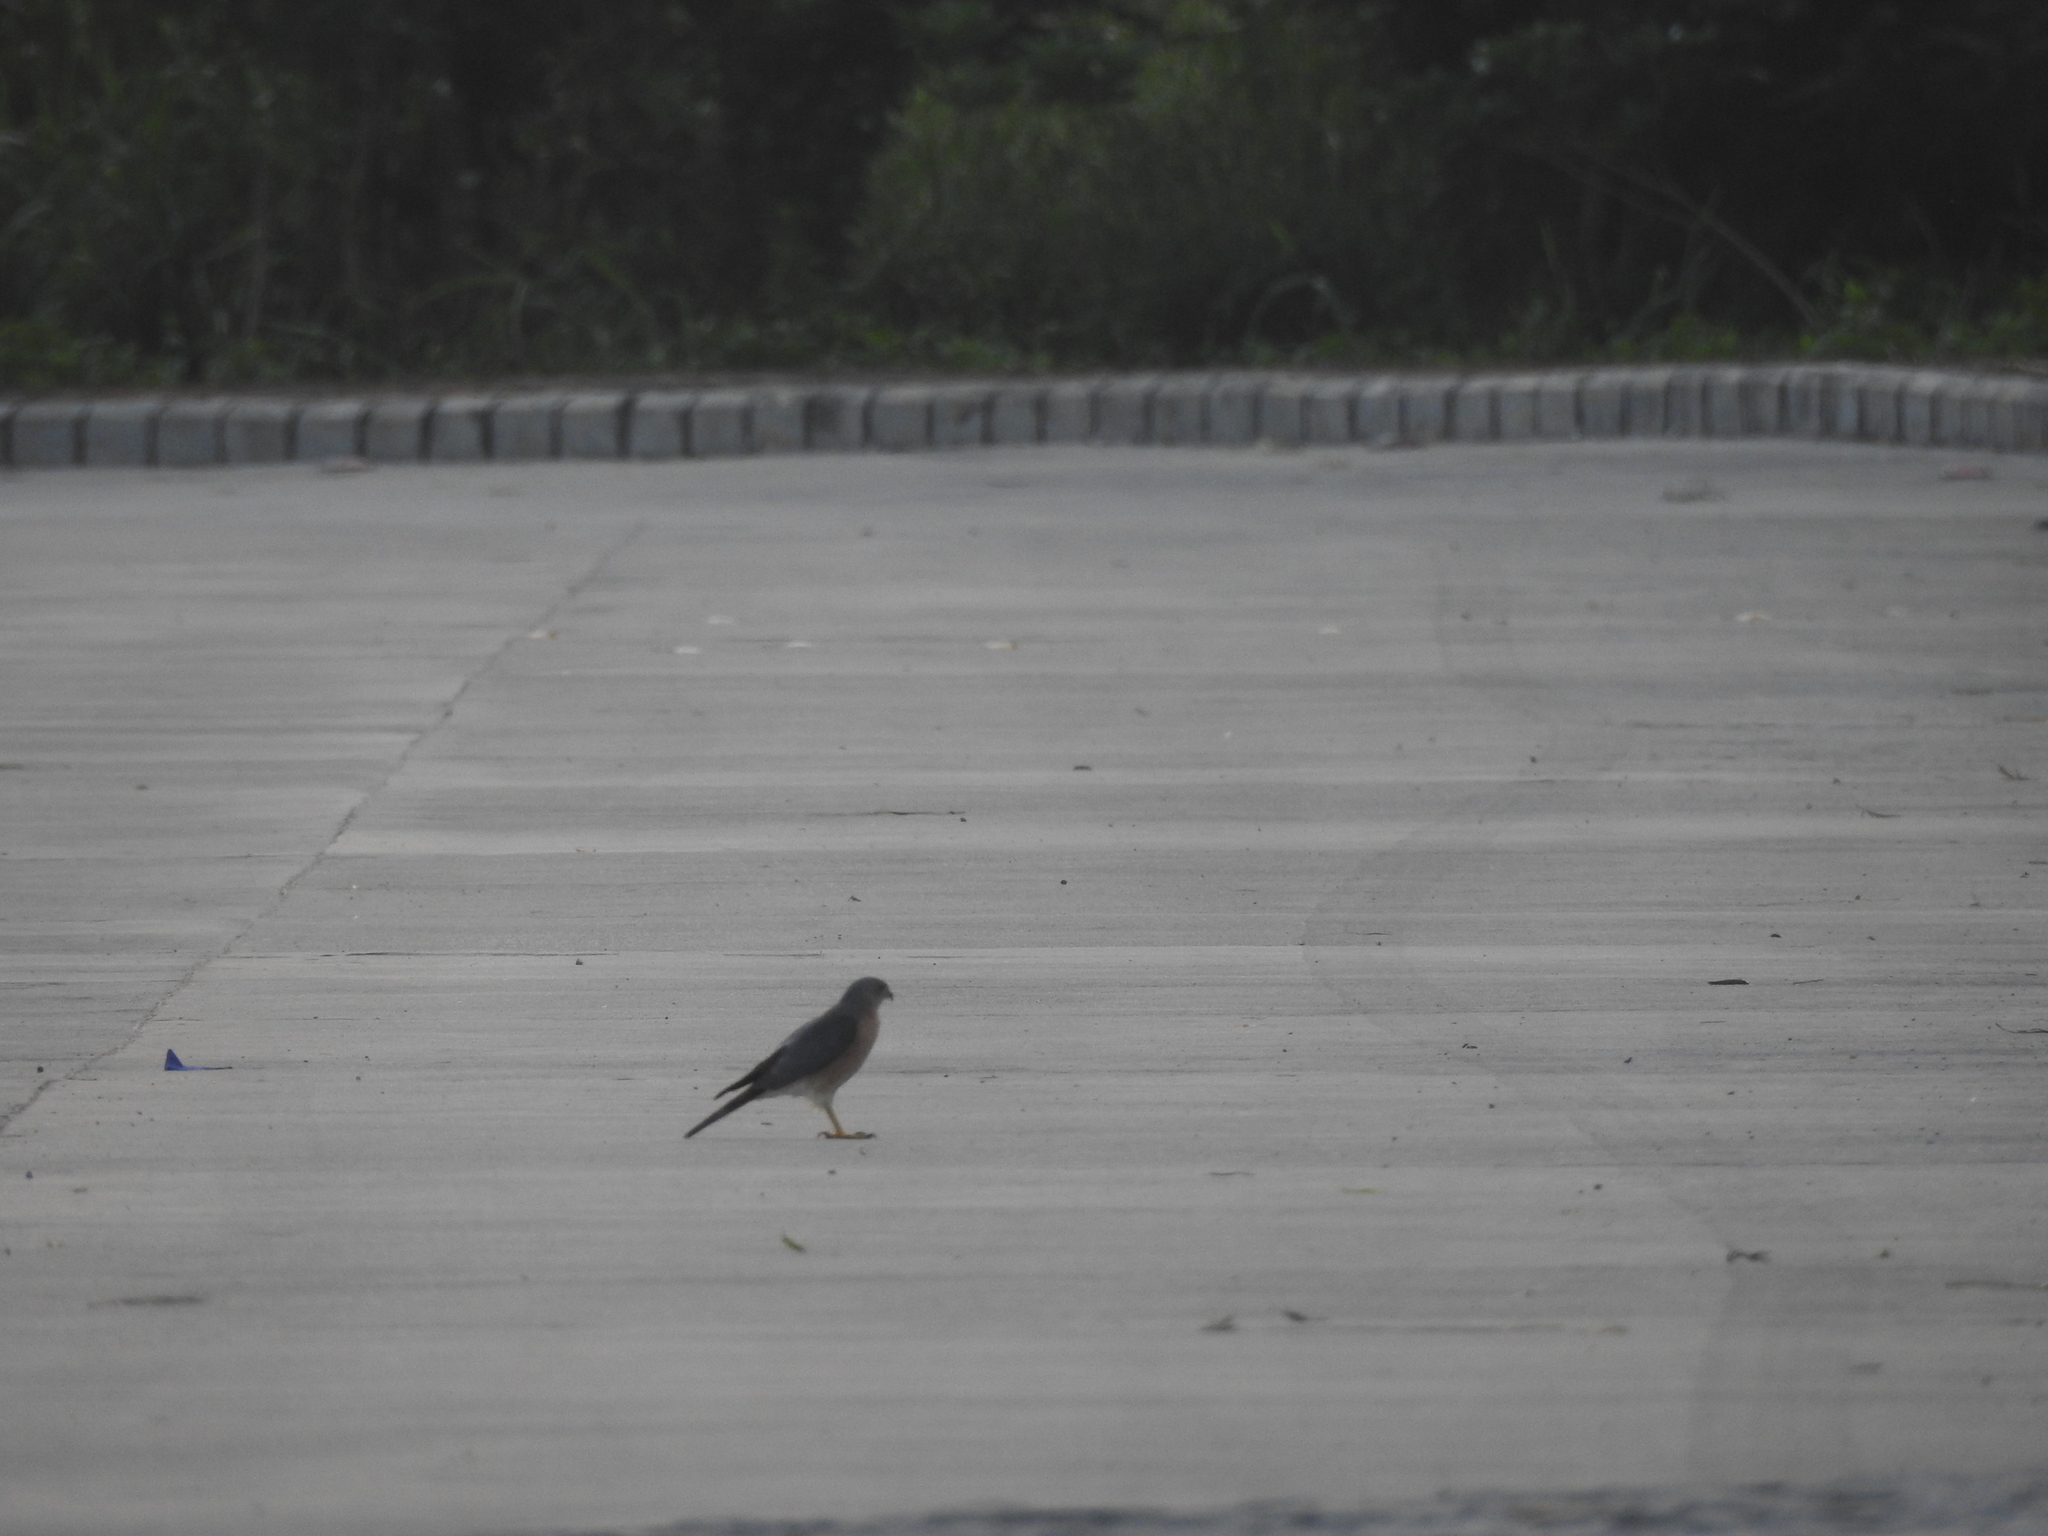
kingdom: Animalia
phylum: Chordata
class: Aves
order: Accipitriformes
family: Accipitridae
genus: Accipiter
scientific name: Accipiter badius
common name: Shikra
